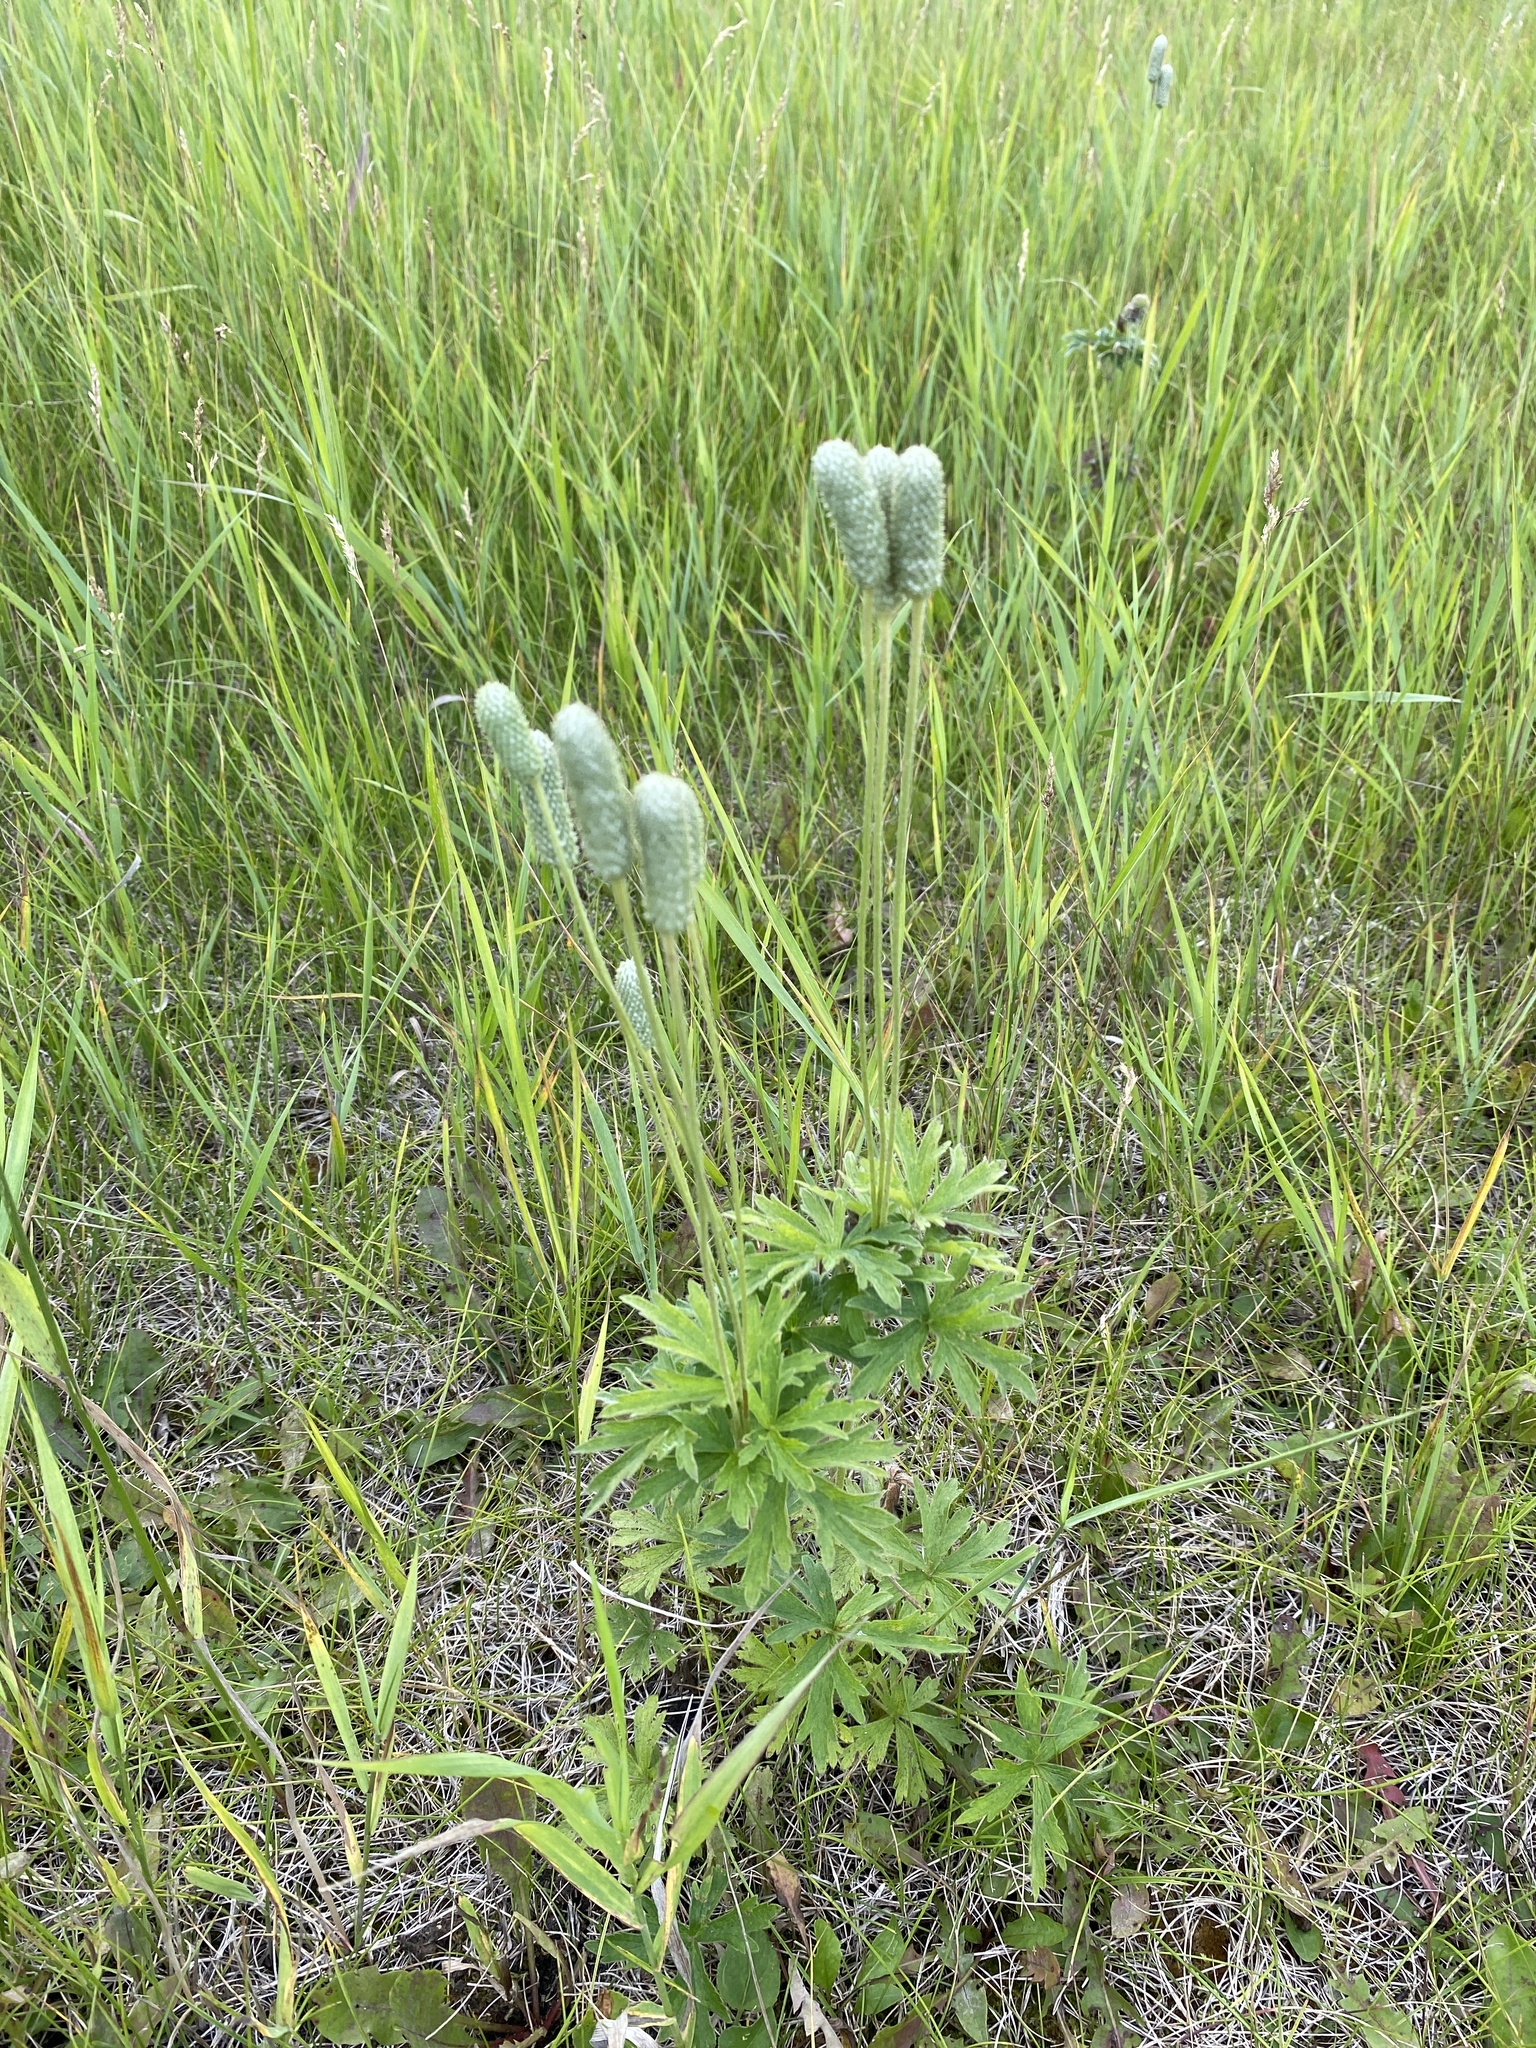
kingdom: Plantae
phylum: Tracheophyta
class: Magnoliopsida
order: Ranunculales
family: Ranunculaceae
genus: Anemone
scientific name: Anemone cylindrica
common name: Candle anemone
